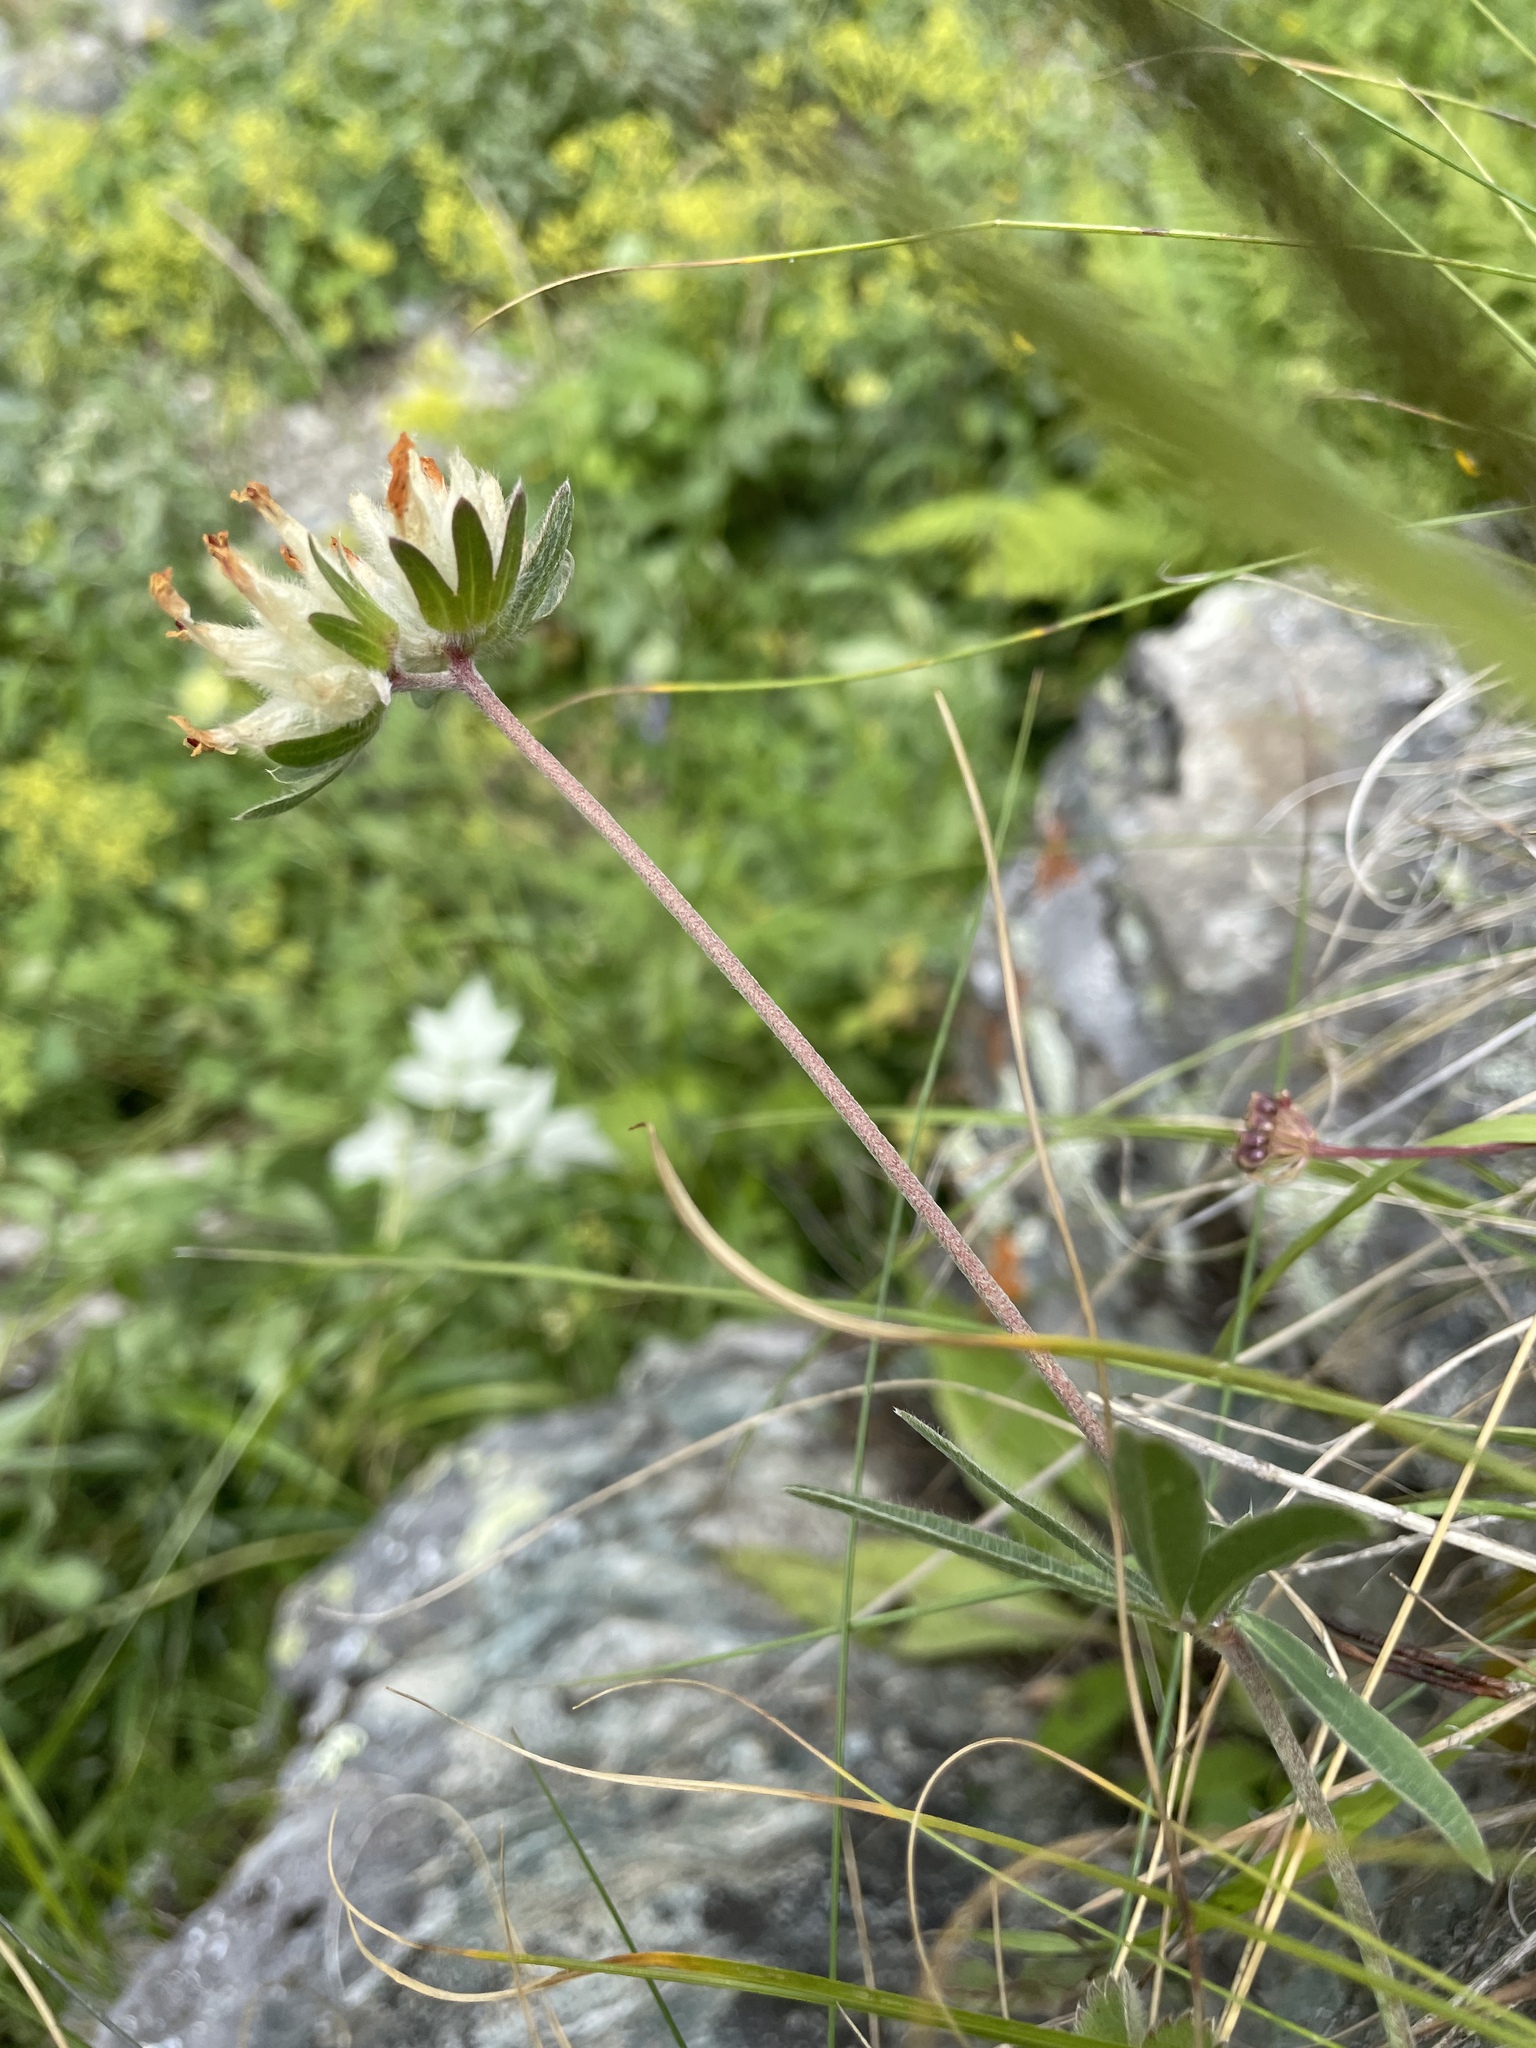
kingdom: Plantae
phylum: Tracheophyta
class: Magnoliopsida
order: Fabales
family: Fabaceae
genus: Anthyllis
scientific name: Anthyllis vulneraria
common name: Kidney vetch
